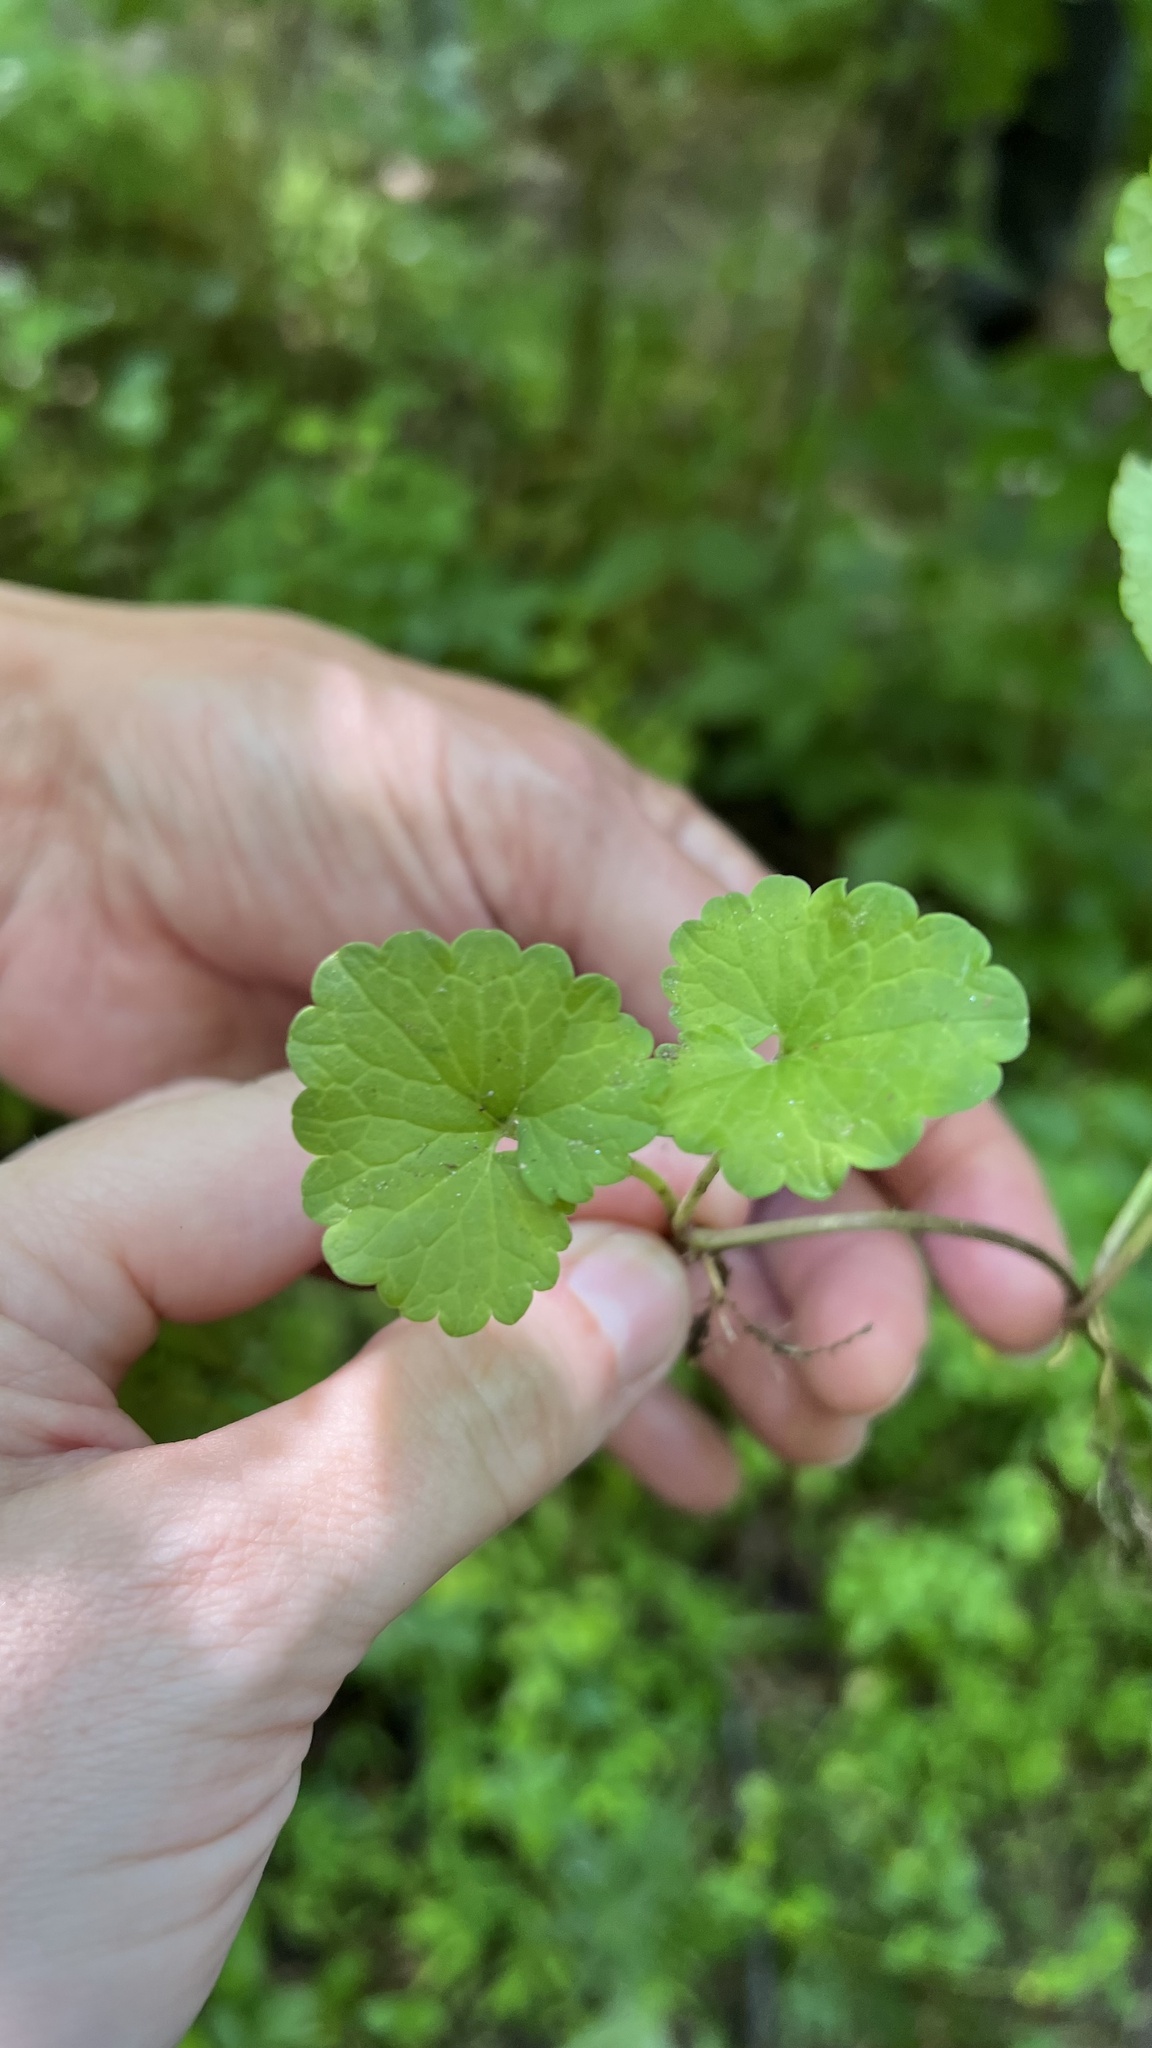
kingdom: Plantae
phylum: Tracheophyta
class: Magnoliopsida
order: Lamiales
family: Lamiaceae
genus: Glechoma
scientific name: Glechoma hederacea
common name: Ground ivy
